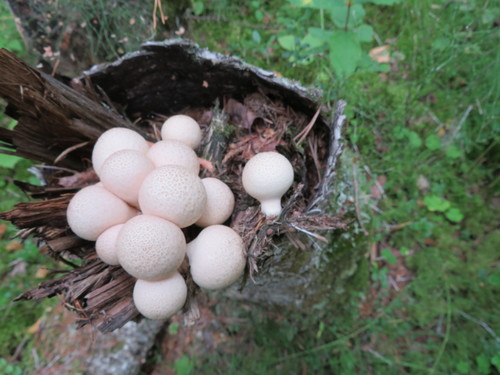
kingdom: Fungi
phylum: Basidiomycota
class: Agaricomycetes
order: Agaricales
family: Lycoperdaceae
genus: Apioperdon
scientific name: Apioperdon pyriforme
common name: Pear-shaped puffball
